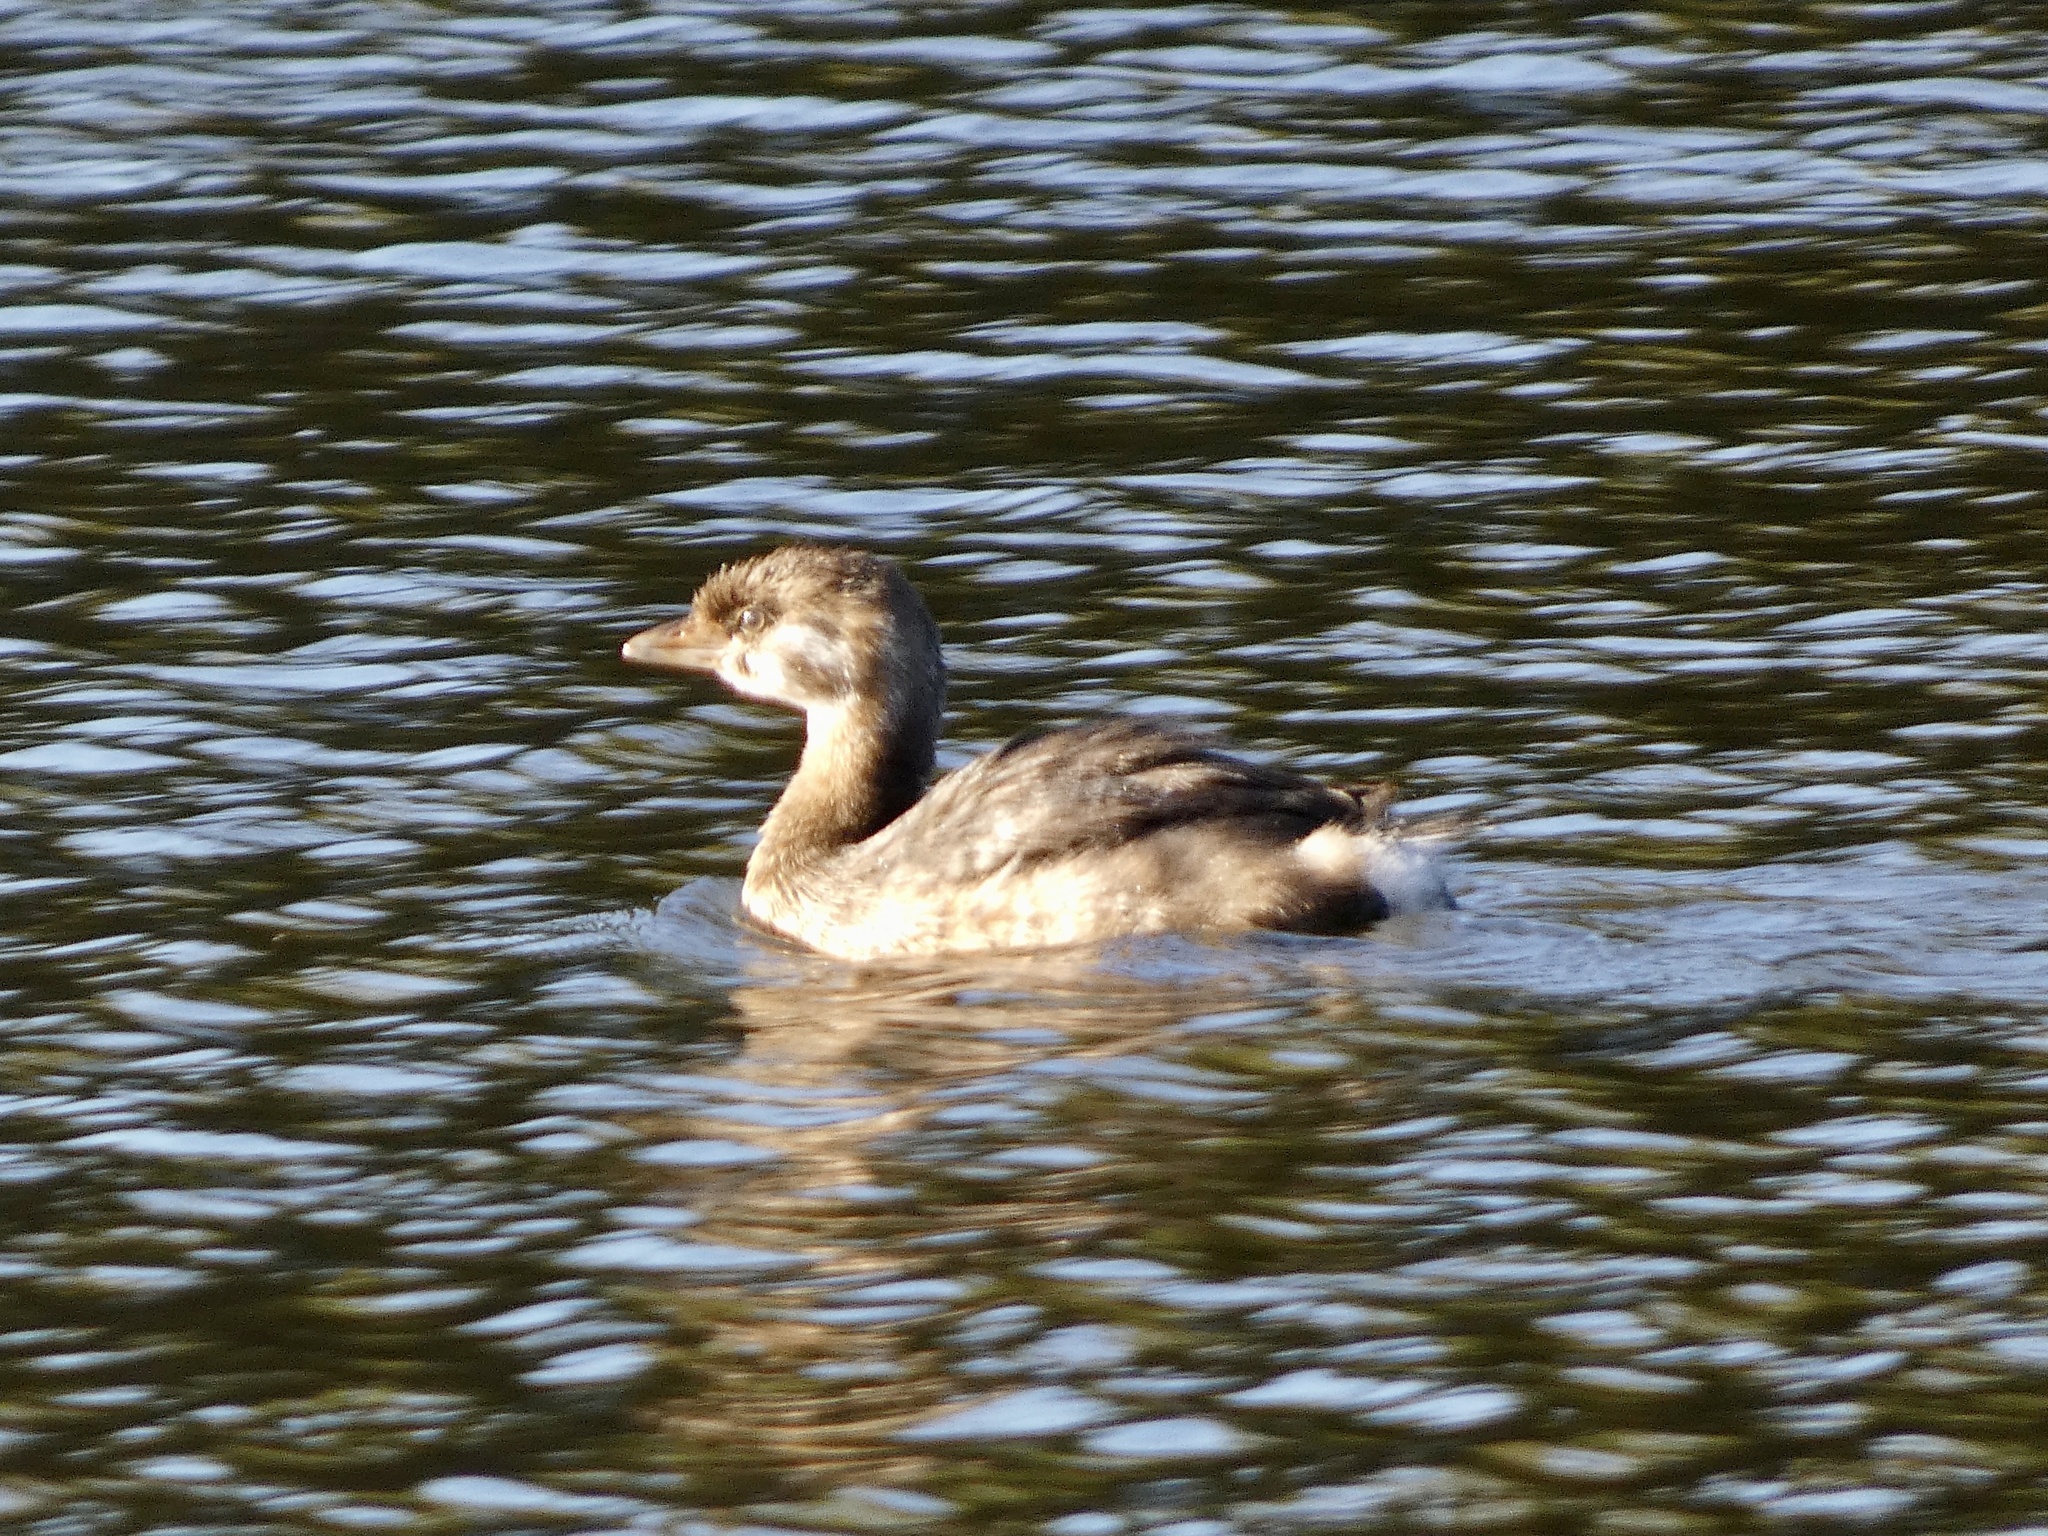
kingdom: Animalia
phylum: Chordata
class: Aves
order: Podicipediformes
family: Podicipedidae
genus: Podilymbus
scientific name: Podilymbus podiceps
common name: Pied-billed grebe
